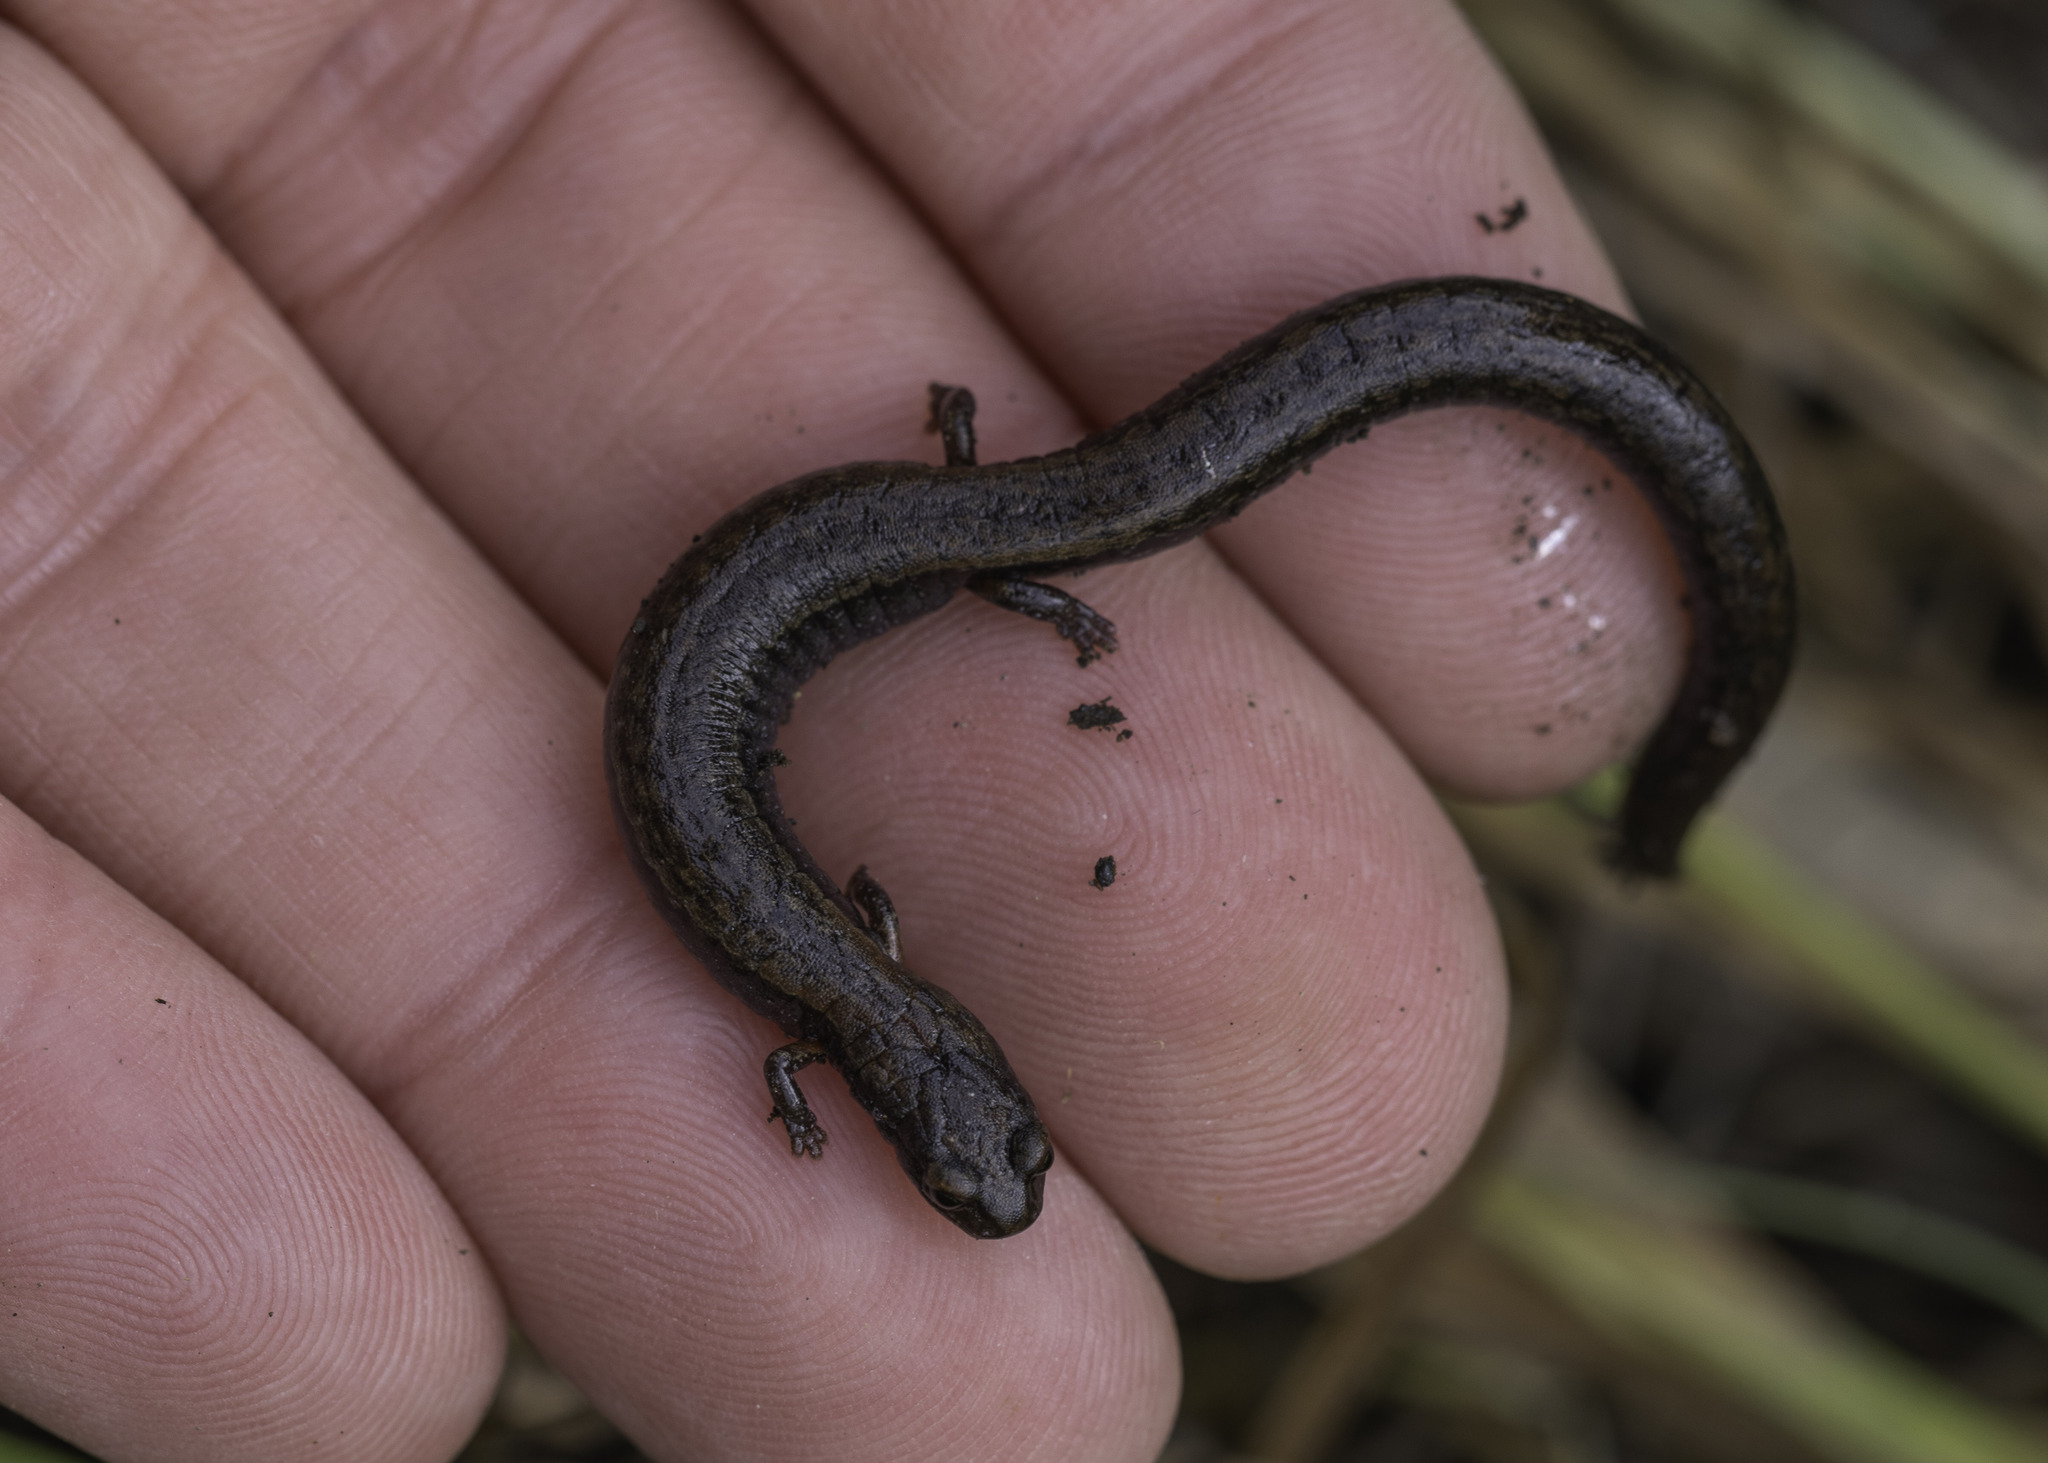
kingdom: Animalia
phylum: Chordata
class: Amphibia
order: Caudata
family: Plethodontidae
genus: Batrachoseps
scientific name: Batrachoseps pacificus
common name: Channel islands slender salamander
